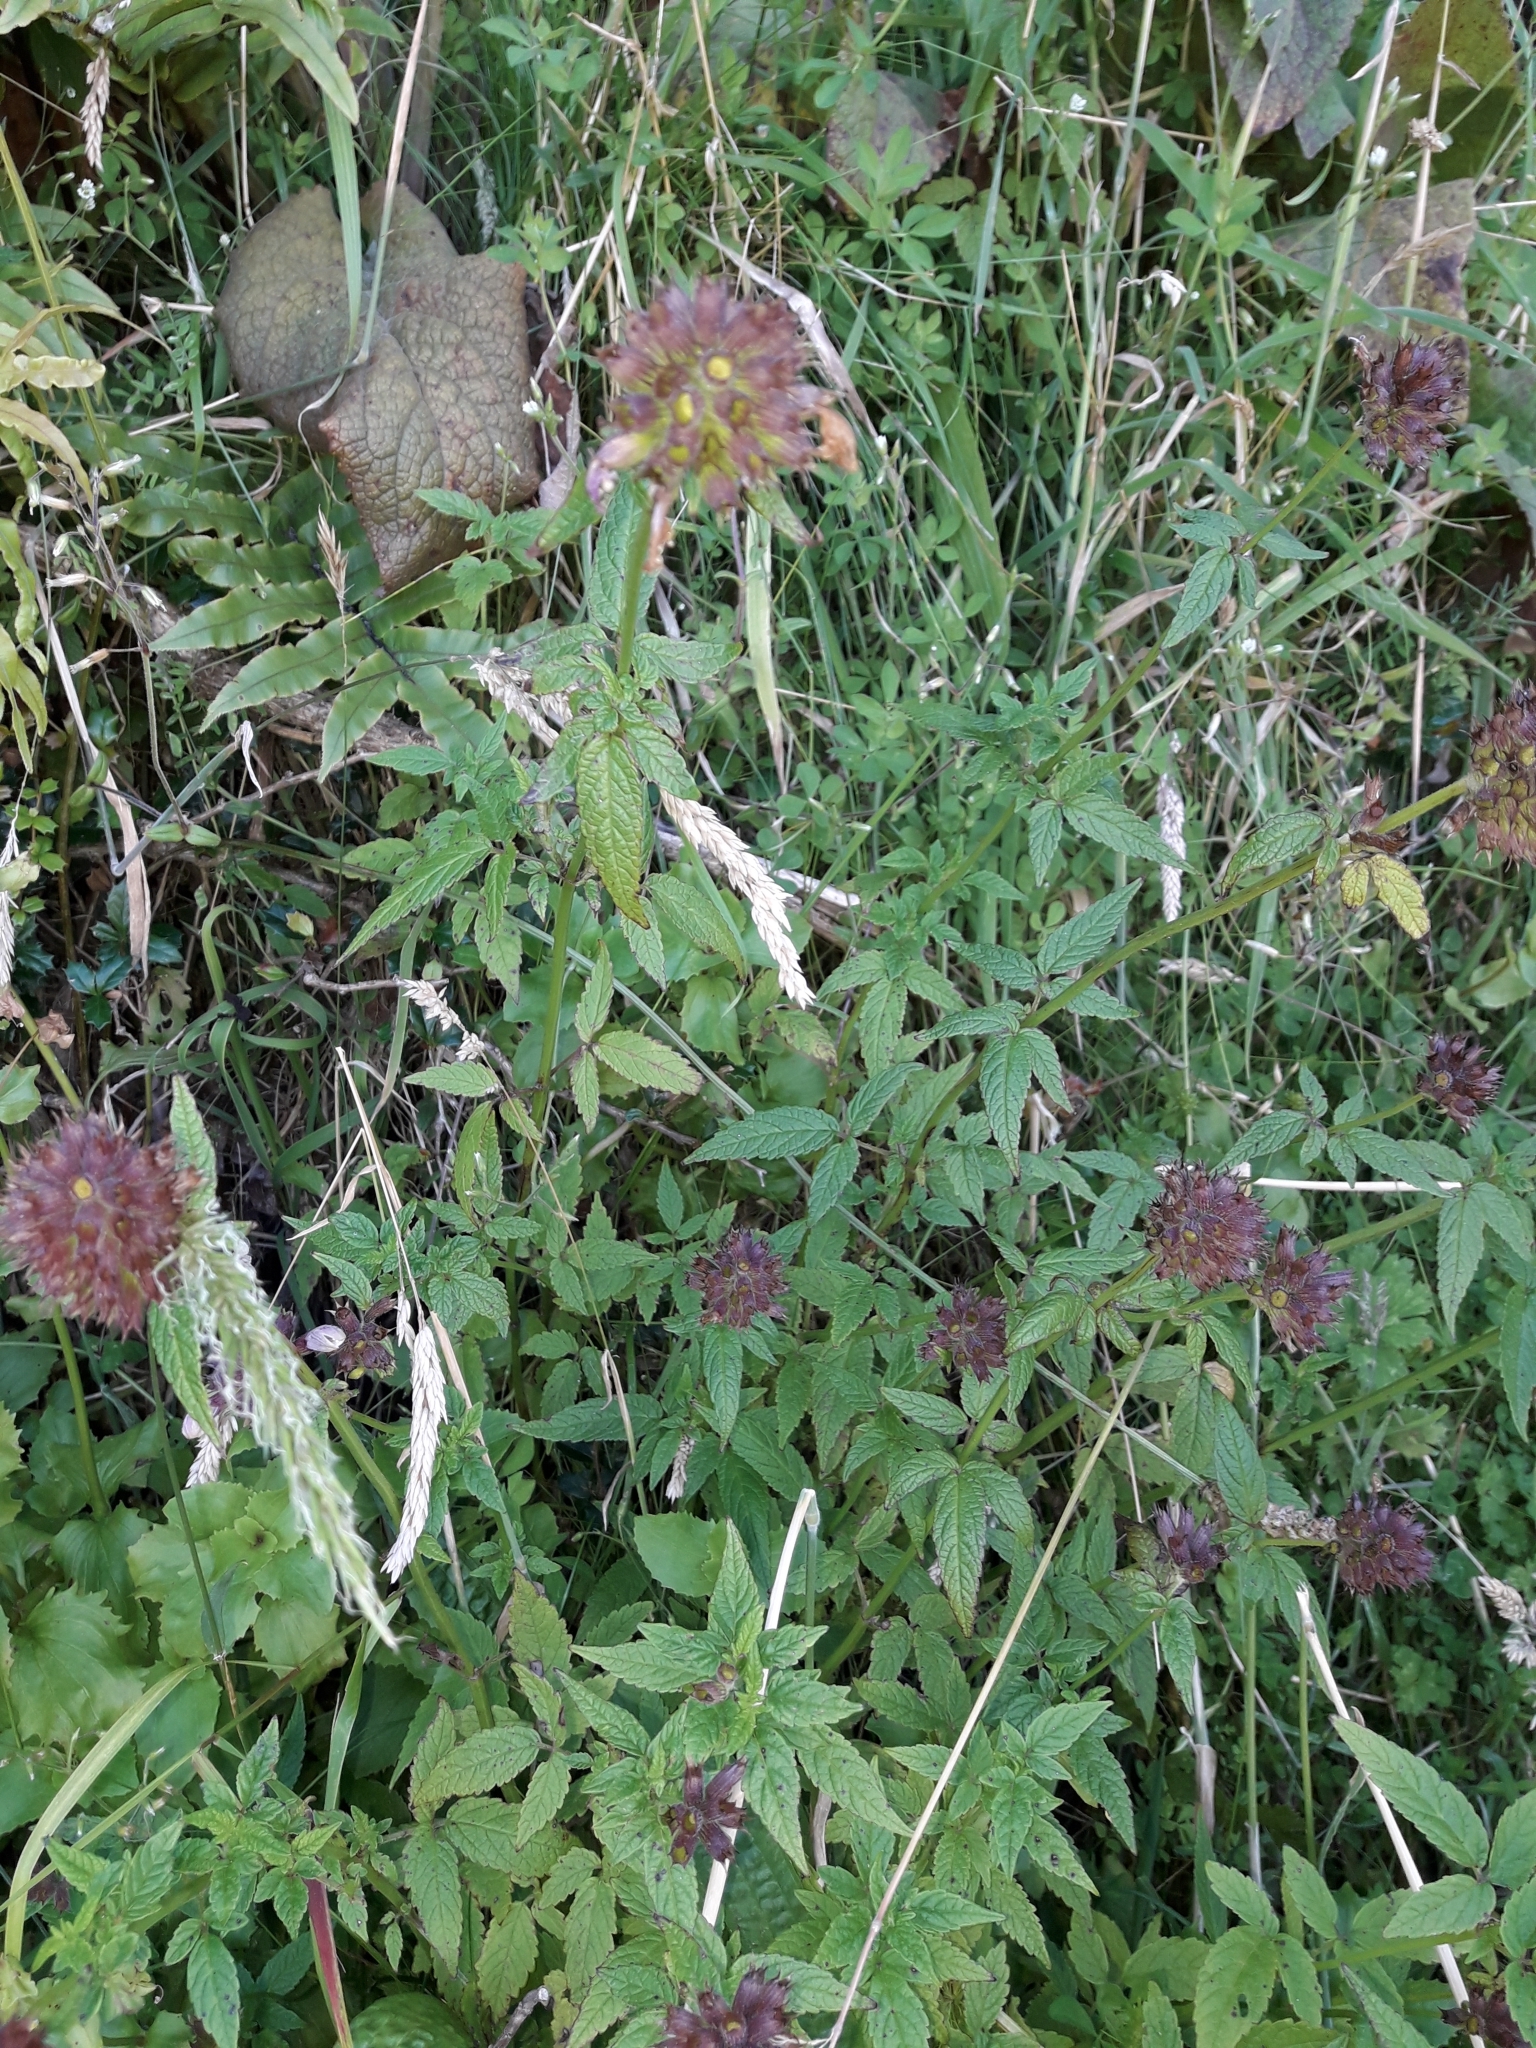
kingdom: Plantae
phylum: Tracheophyta
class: Magnoliopsida
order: Lamiales
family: Lamiaceae
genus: Cedronella
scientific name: Cedronella canariensis
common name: Canary islands balm
